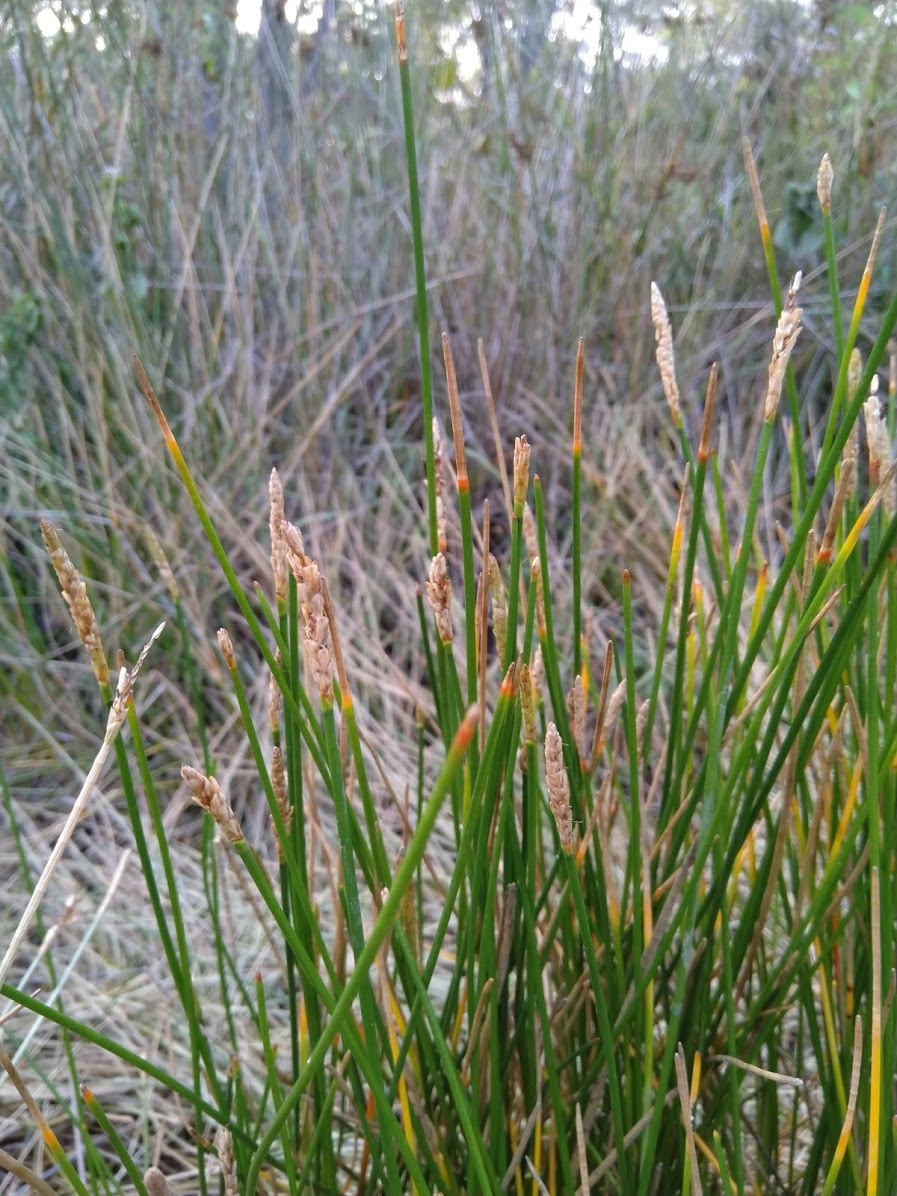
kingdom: Plantae
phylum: Tracheophyta
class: Liliopsida
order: Poales
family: Cyperaceae
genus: Eleocharis
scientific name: Eleocharis dulcis
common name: Chinese water chestnut
